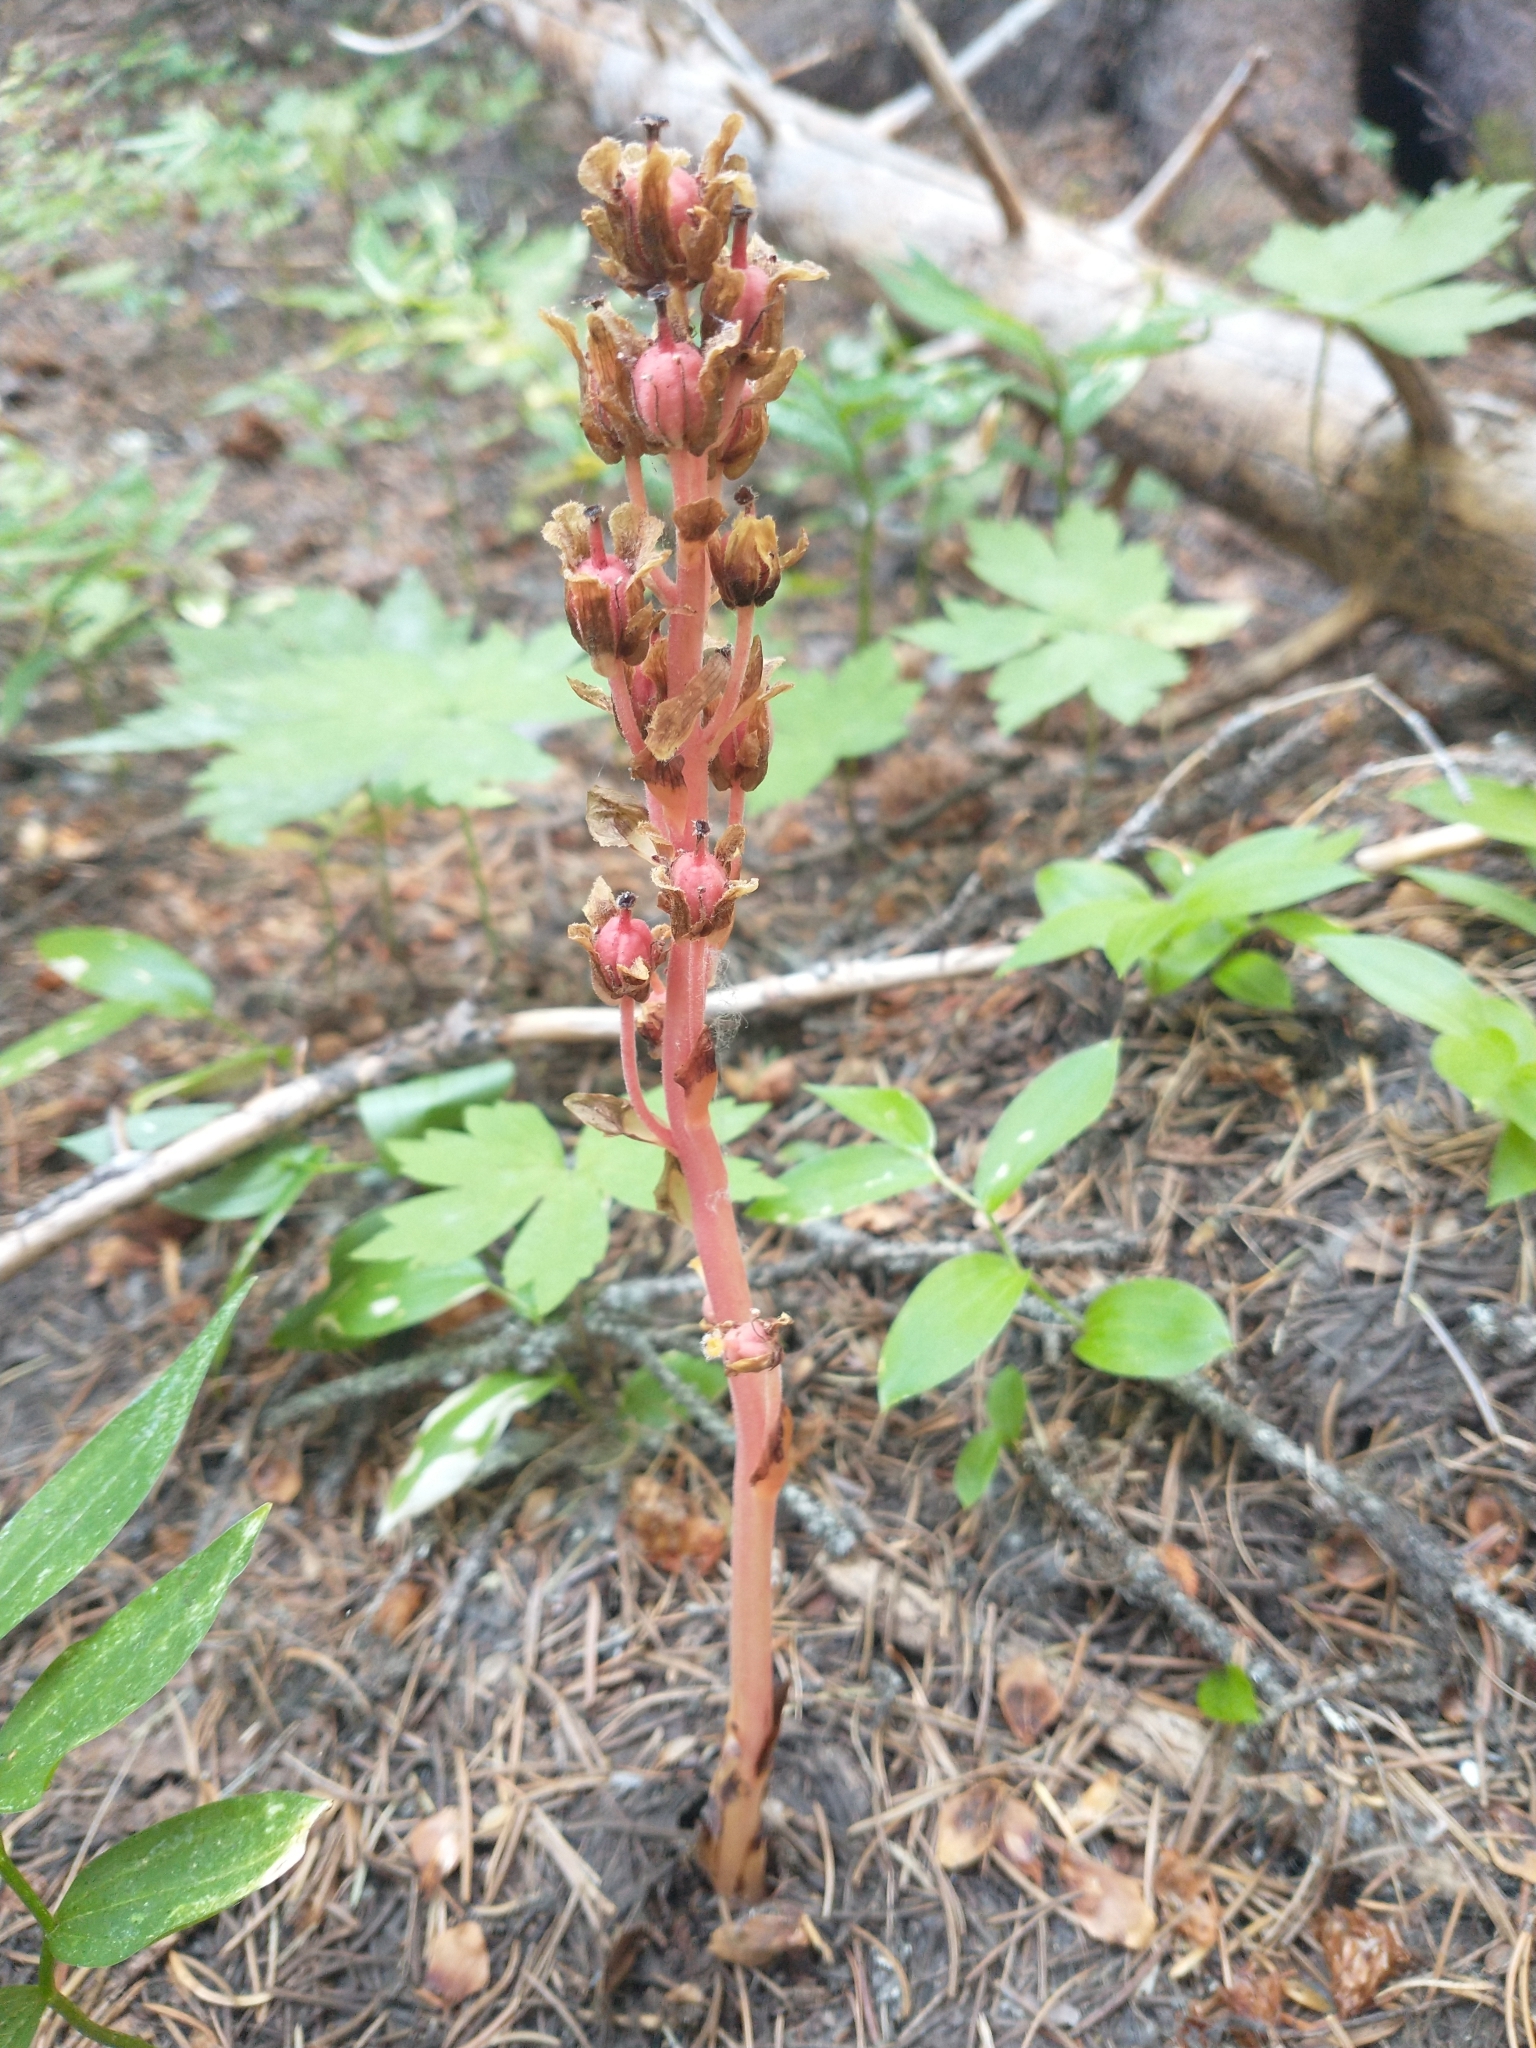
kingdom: Plantae
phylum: Tracheophyta
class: Magnoliopsida
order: Ericales
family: Ericaceae
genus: Hypopitys
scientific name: Hypopitys monotropa
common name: Yellow bird's-nest
